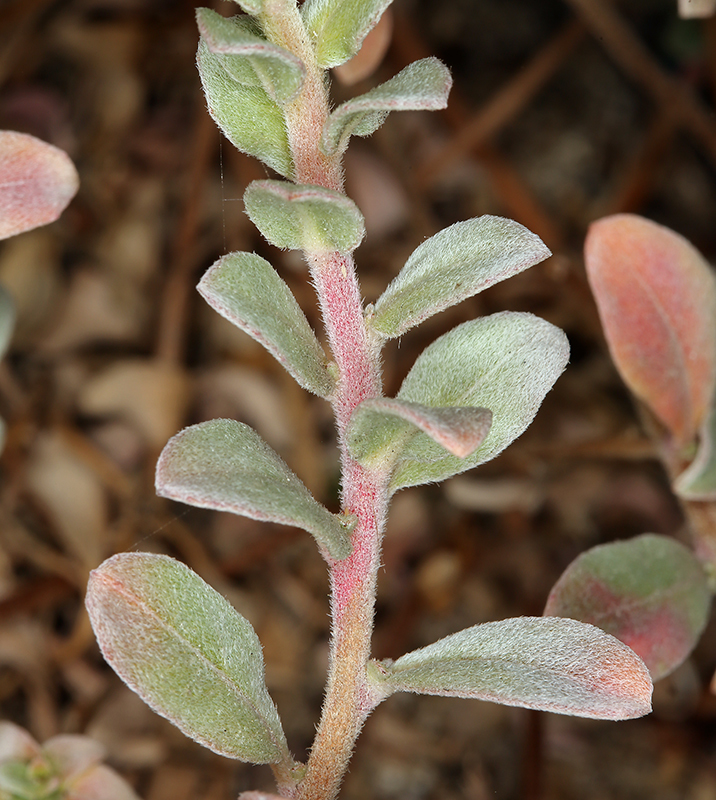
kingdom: Plantae
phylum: Tracheophyta
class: Magnoliopsida
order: Myrtales
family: Onagraceae
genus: Camissoniopsis
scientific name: Camissoniopsis cheiranthifolia
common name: Beach suncup
